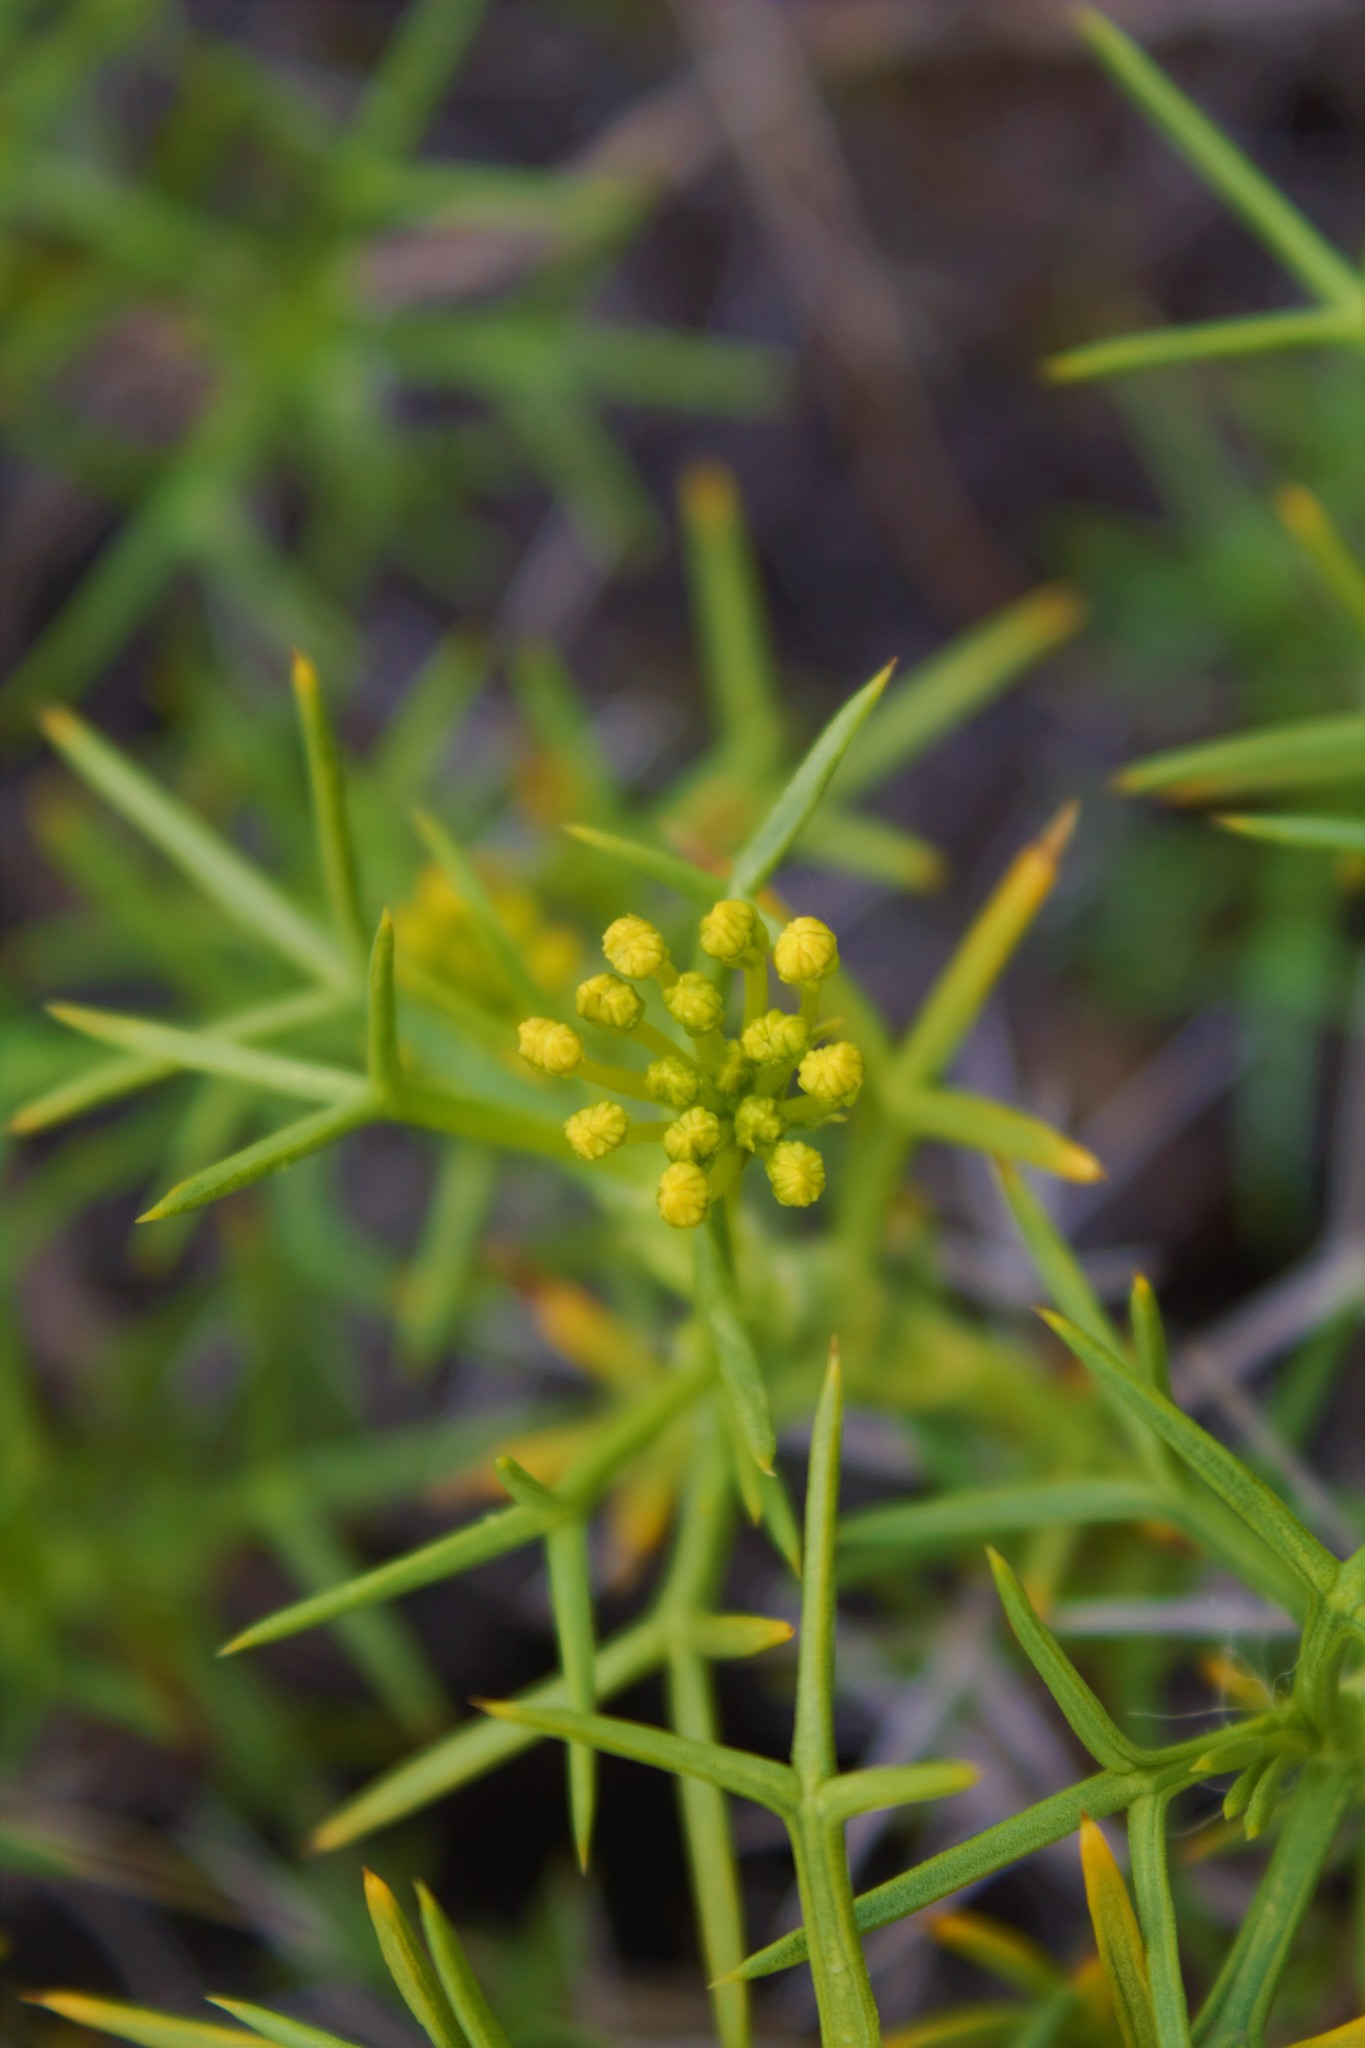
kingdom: Plantae
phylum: Tracheophyta
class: Magnoliopsida
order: Apiales
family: Apiaceae
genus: Azorella
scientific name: Azorella prolifera
